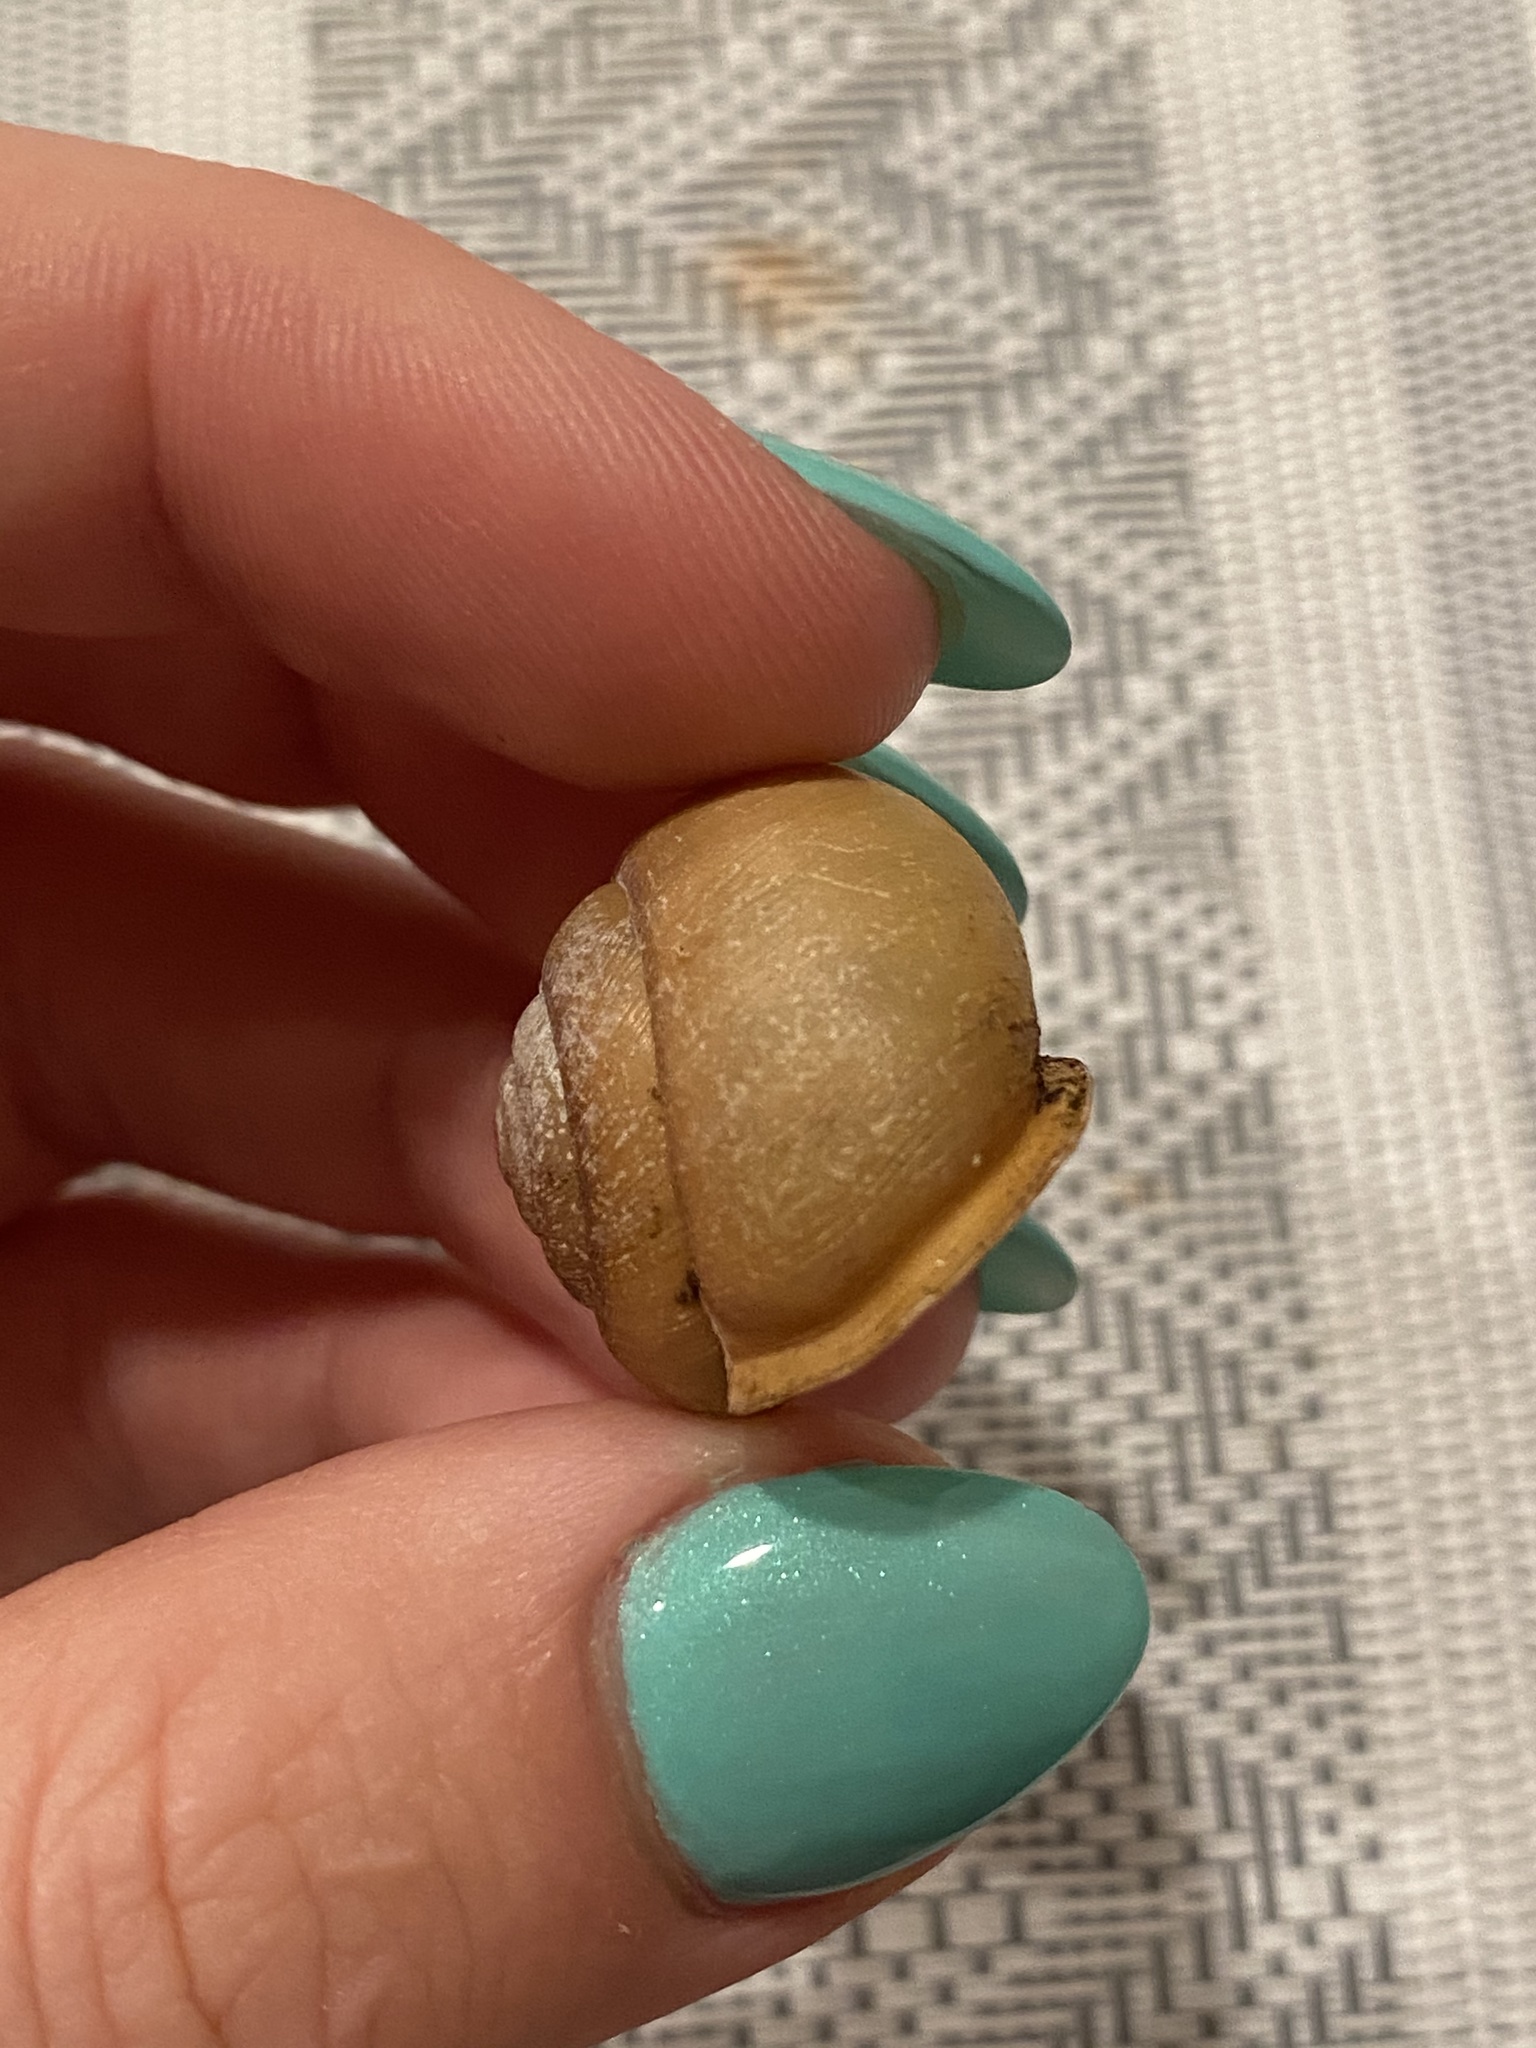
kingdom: Animalia
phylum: Mollusca
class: Gastropoda
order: Stylommatophora
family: Polygyridae
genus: Neohelix
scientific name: Neohelix albolabris
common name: Eastern whitelip
